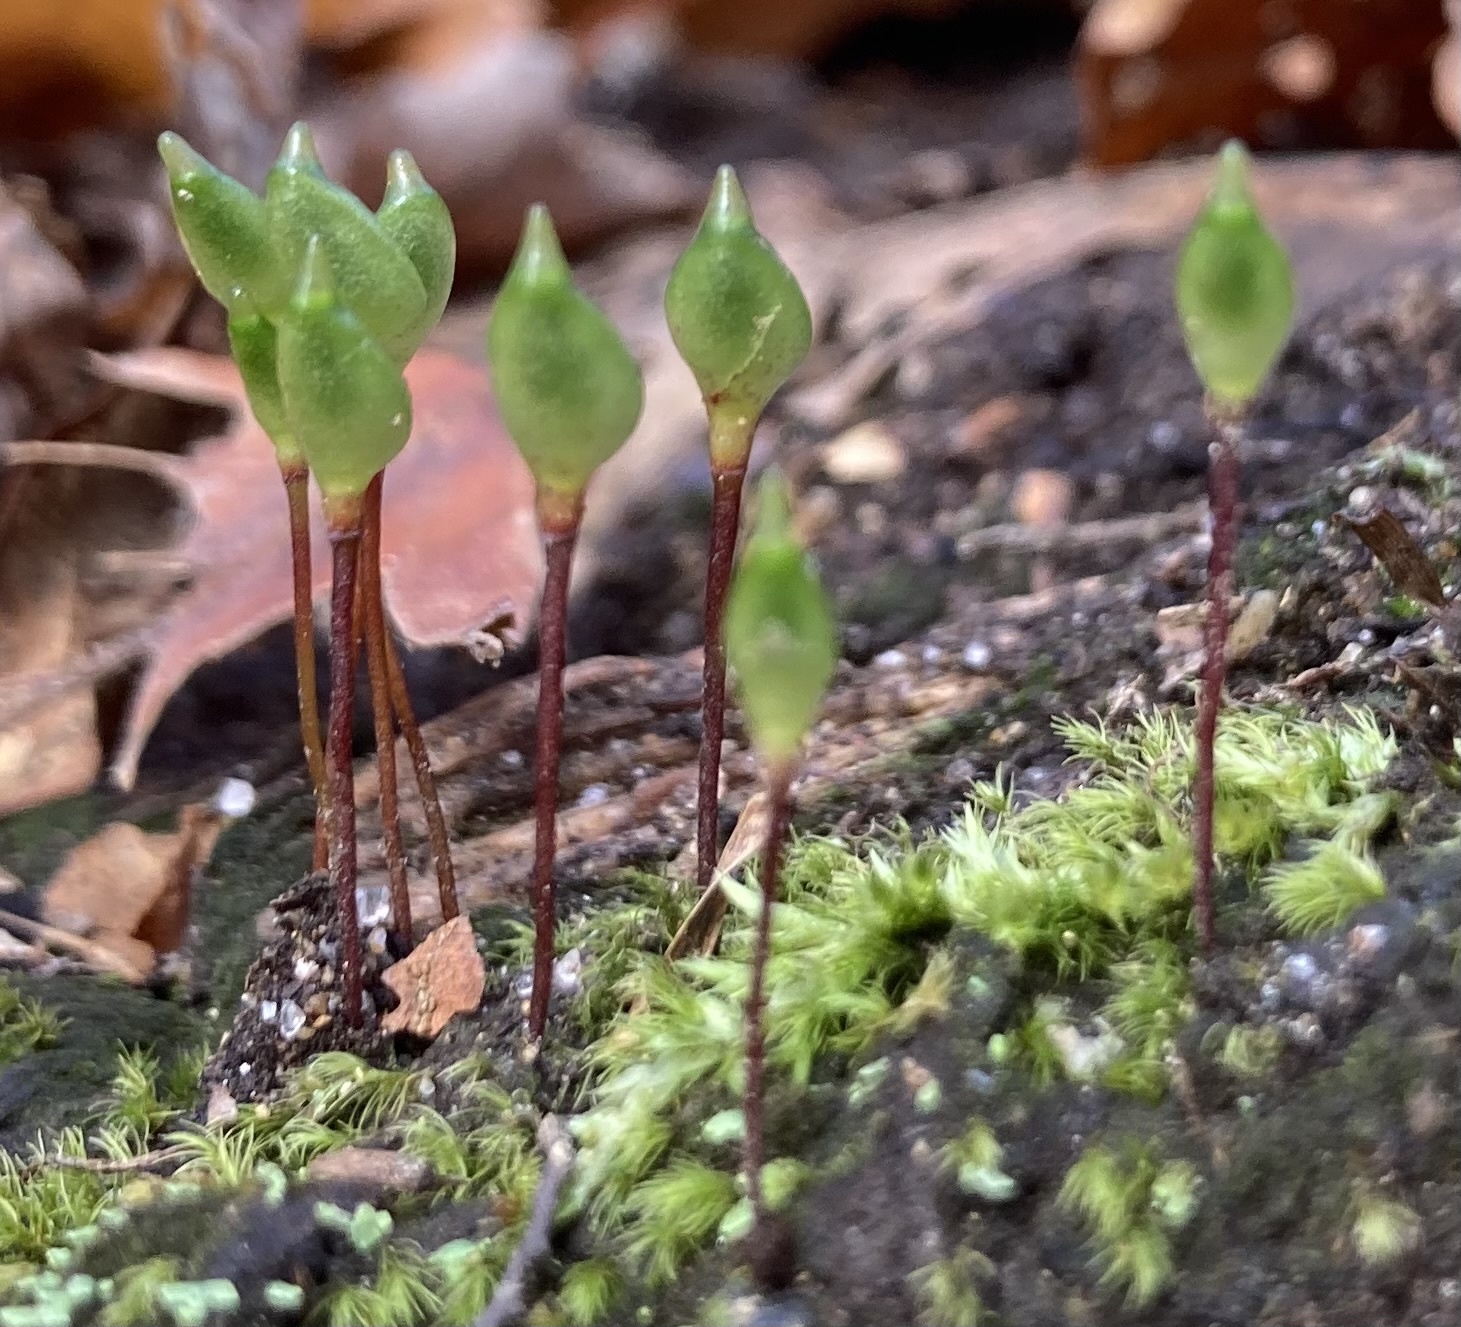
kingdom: Plantae
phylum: Bryophyta
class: Bryopsida
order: Buxbaumiales
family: Buxbaumiaceae
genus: Buxbaumia
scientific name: Buxbaumia aphylla
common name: Brown shield-moss
